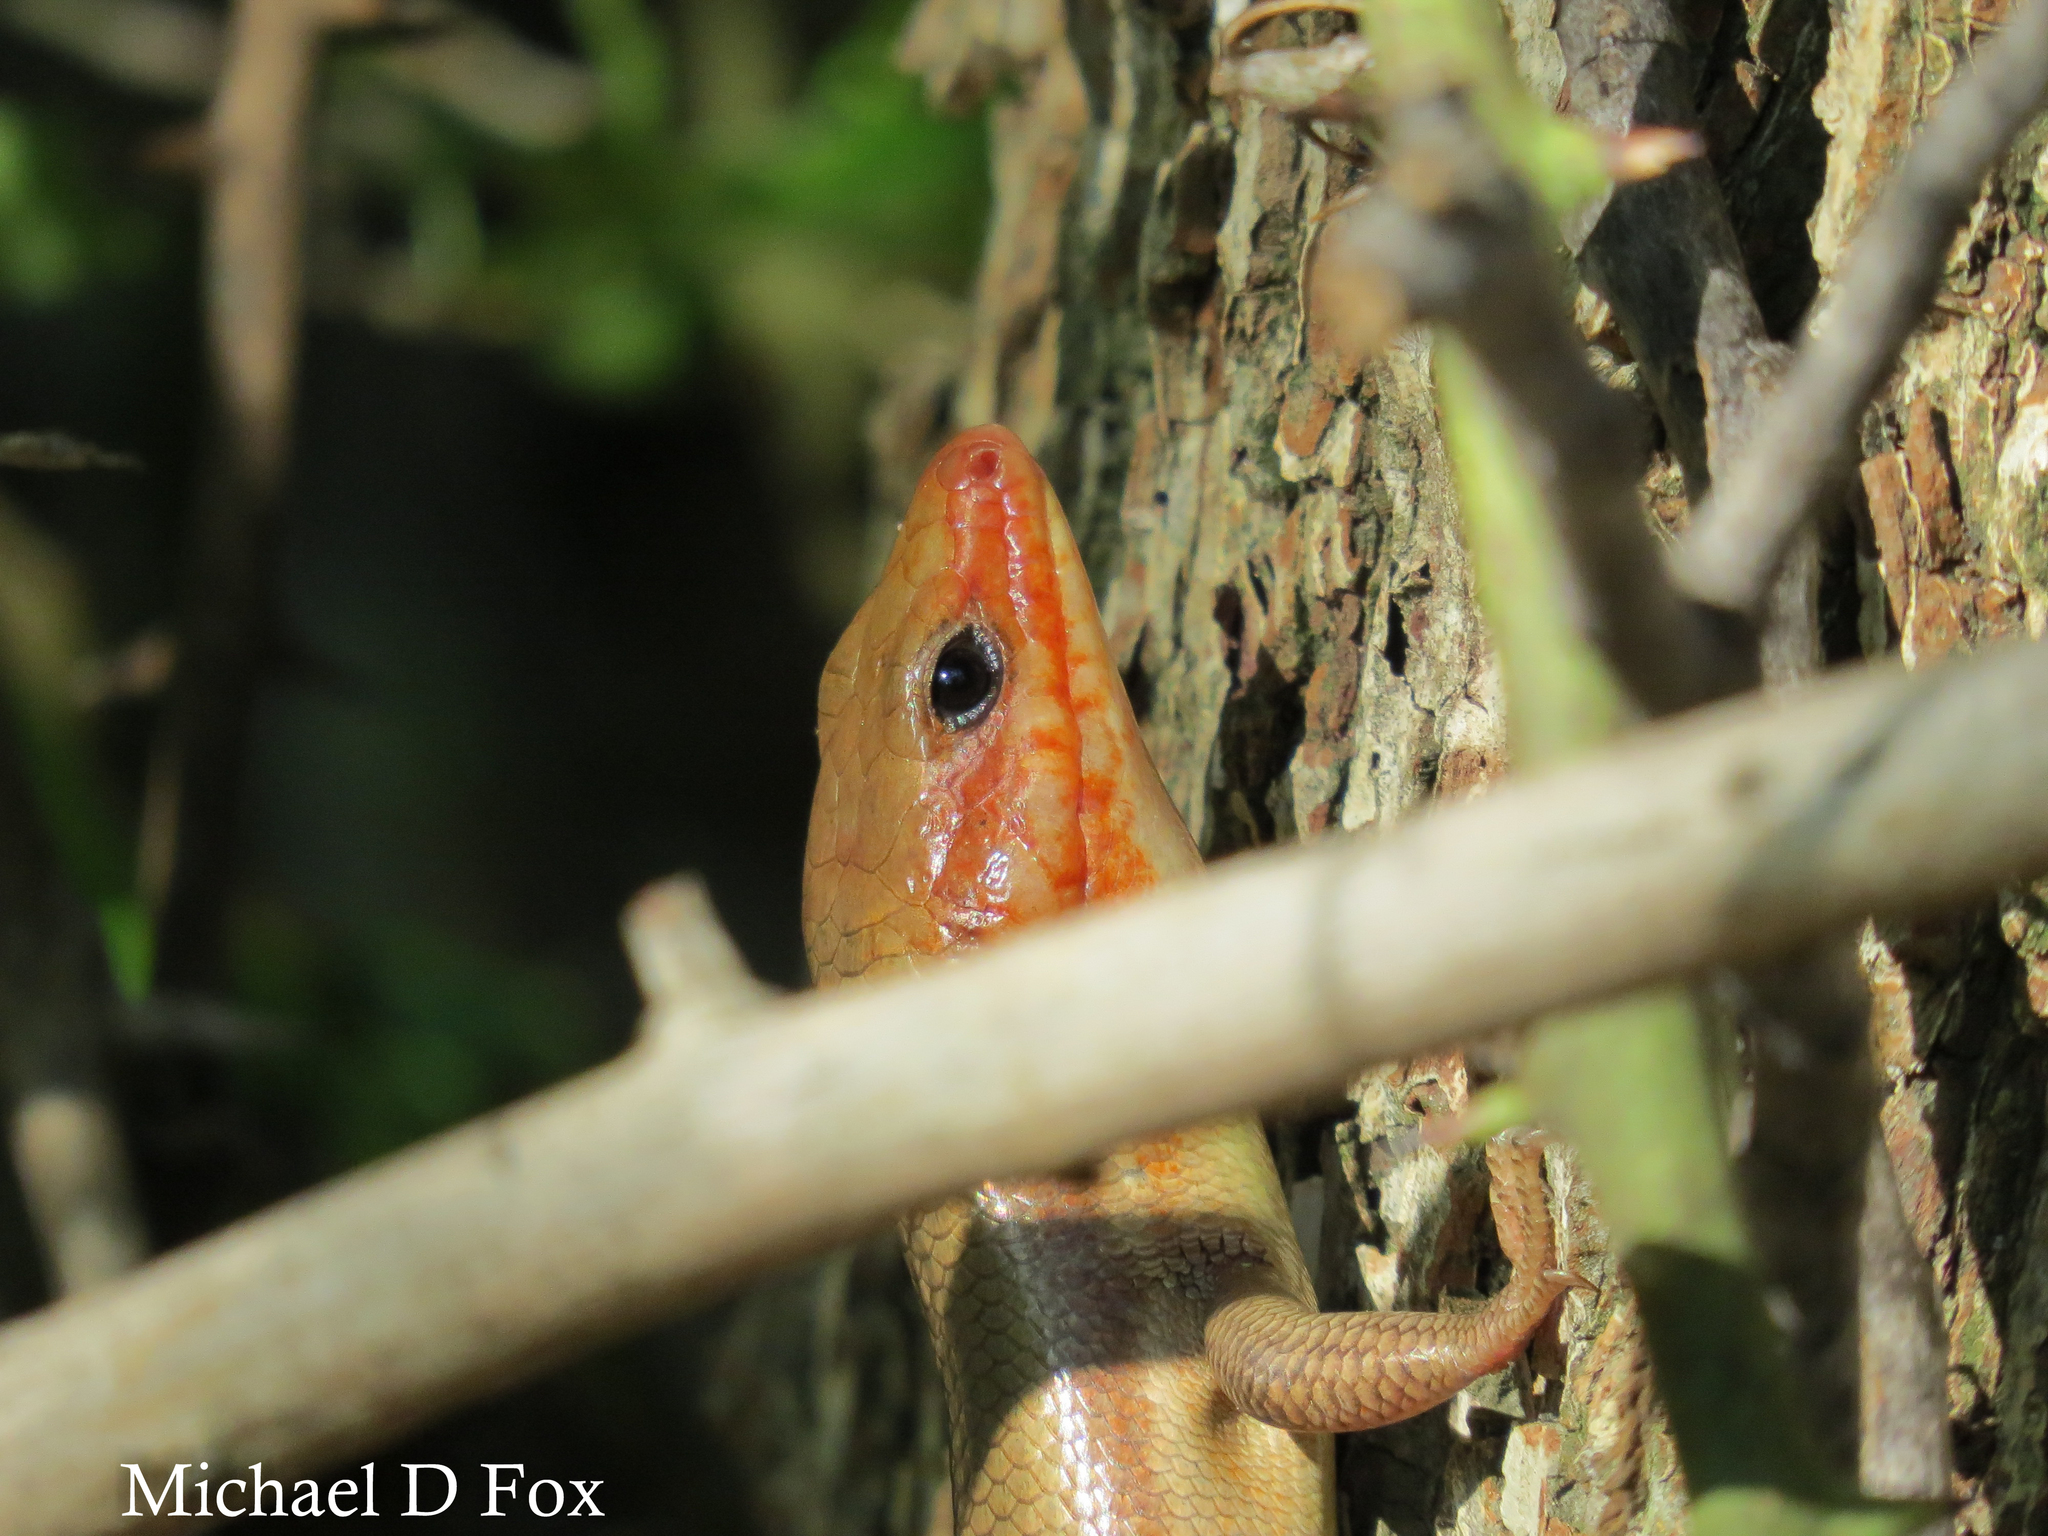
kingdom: Animalia
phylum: Chordata
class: Squamata
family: Scincidae
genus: Plestiodon
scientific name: Plestiodon laticeps
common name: Broadhead skink
